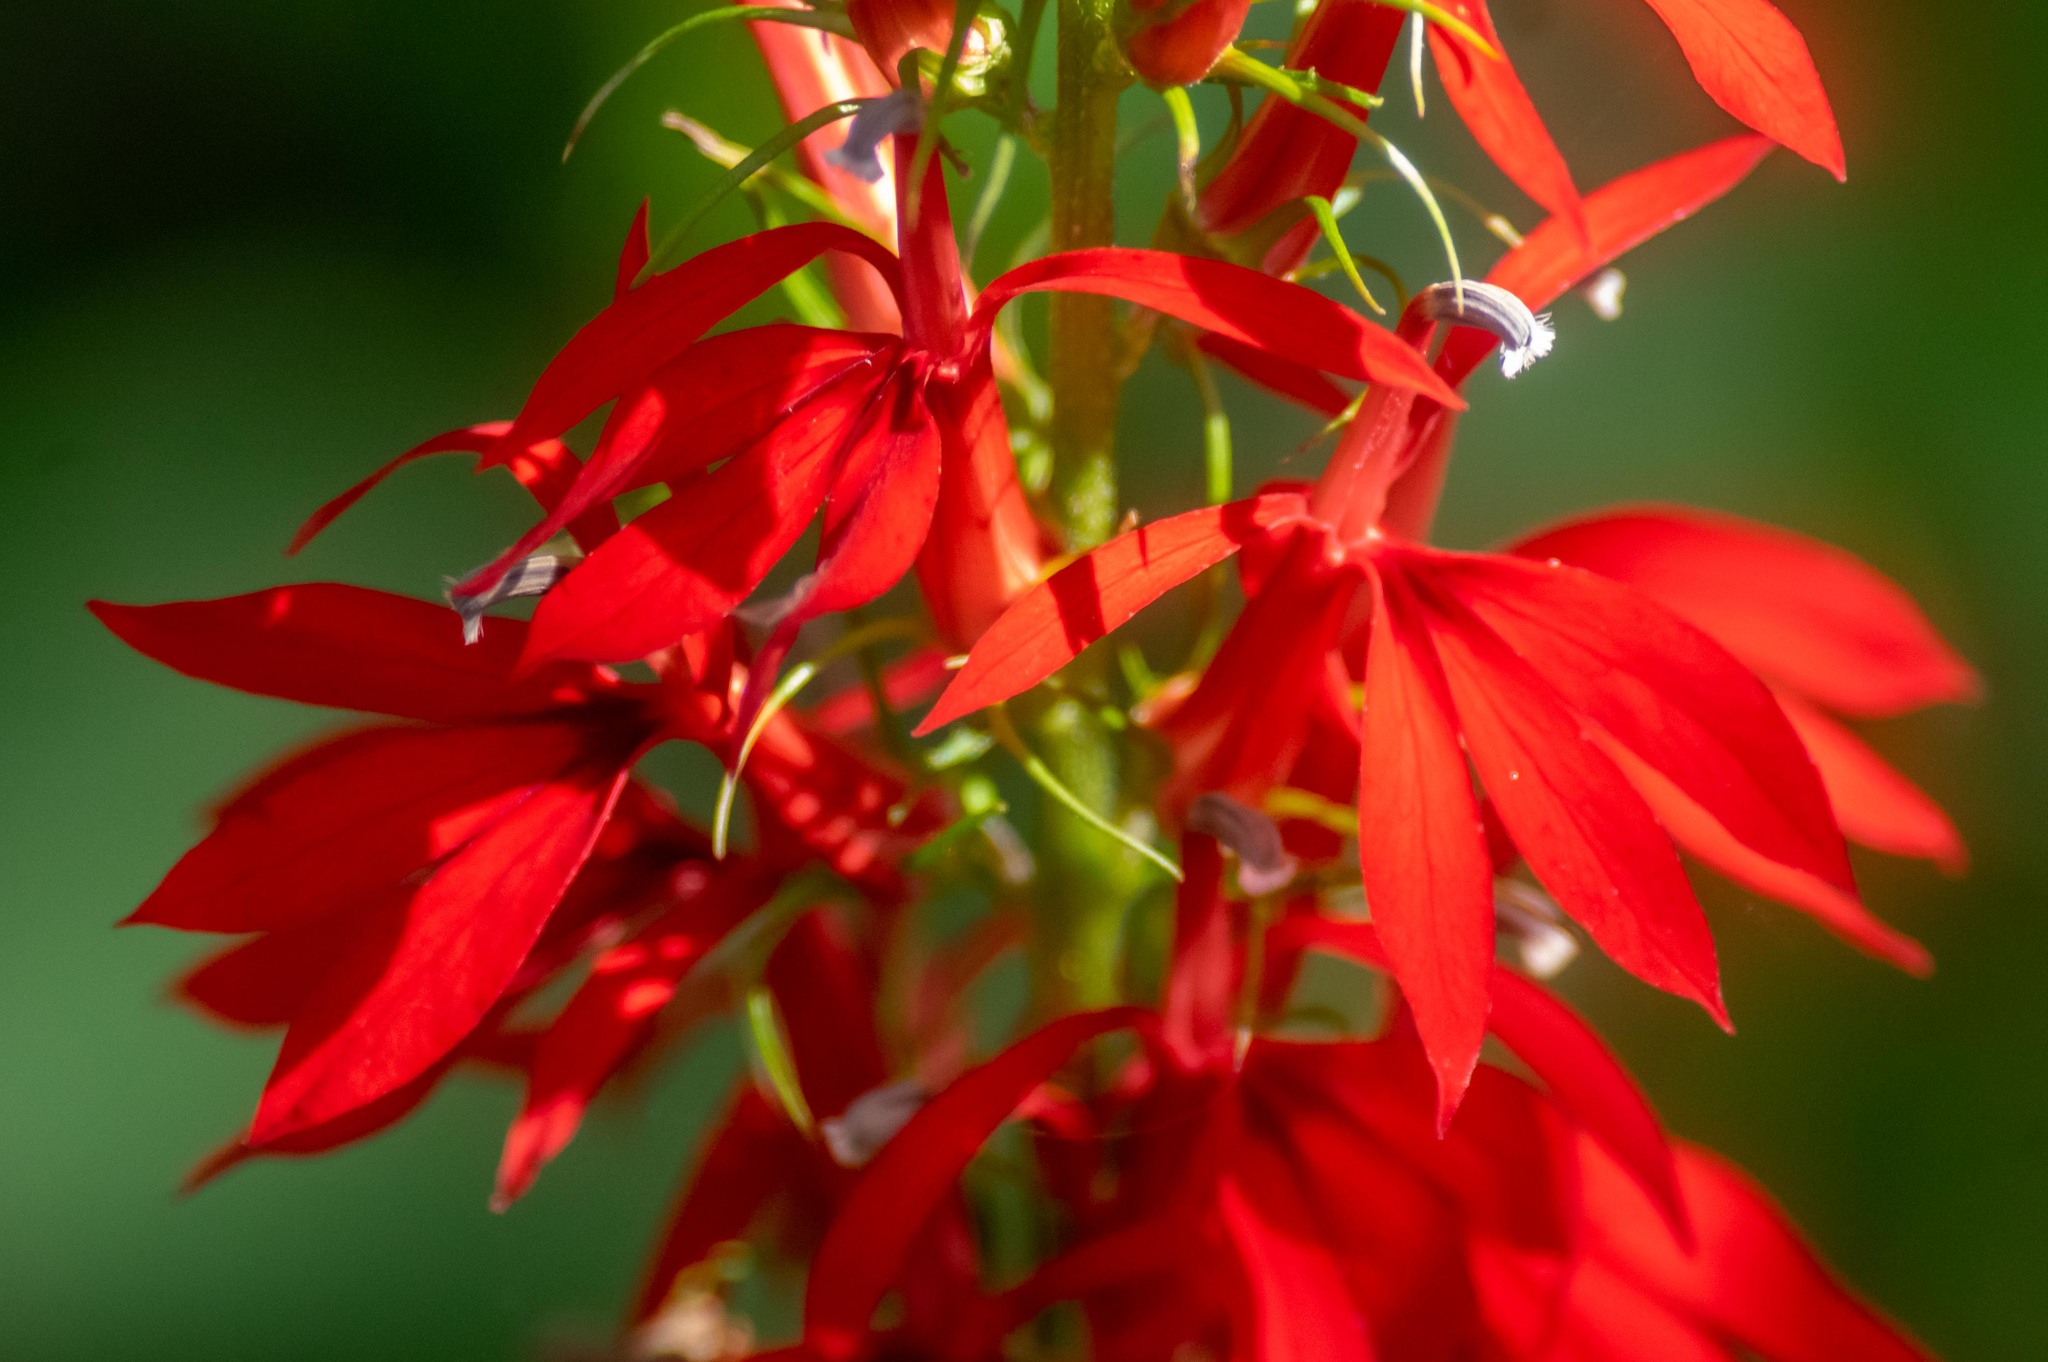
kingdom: Plantae
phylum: Tracheophyta
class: Magnoliopsida
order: Asterales
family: Campanulaceae
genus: Lobelia
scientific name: Lobelia cardinalis
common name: Cardinal flower
